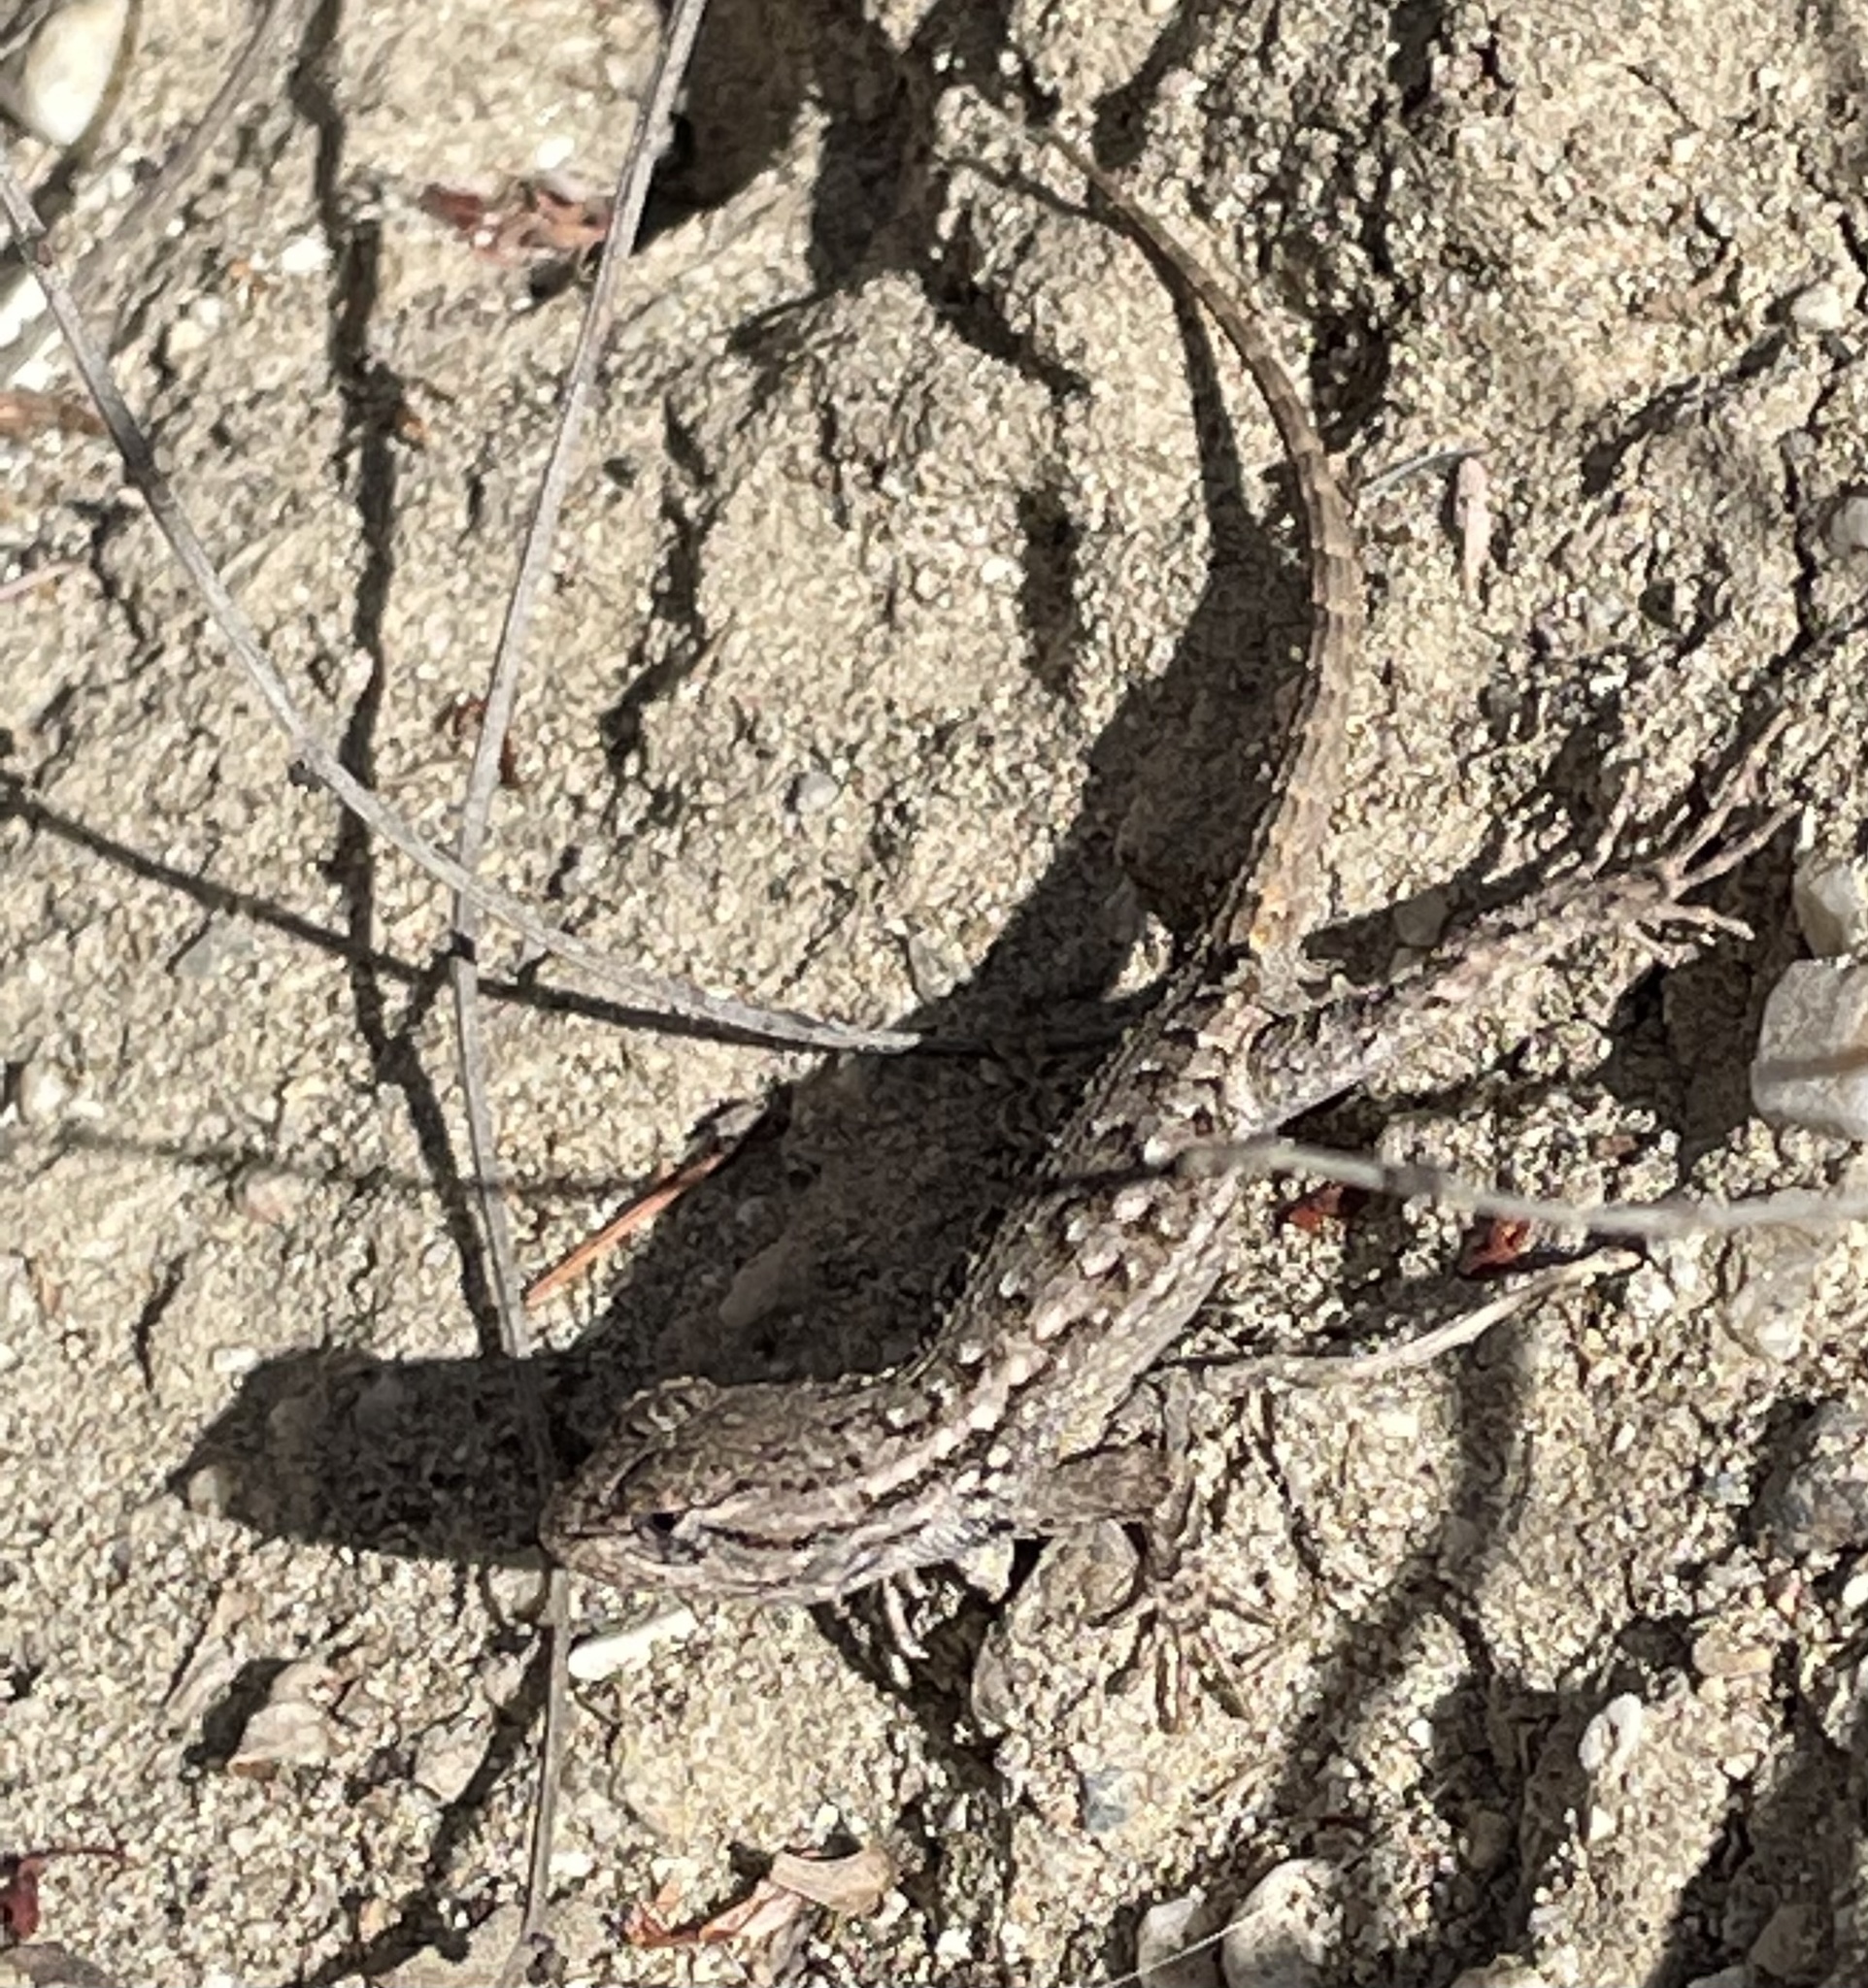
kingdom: Animalia
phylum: Chordata
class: Squamata
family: Phrynosomatidae
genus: Sceloporus
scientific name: Sceloporus occidentalis
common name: Western fence lizard
